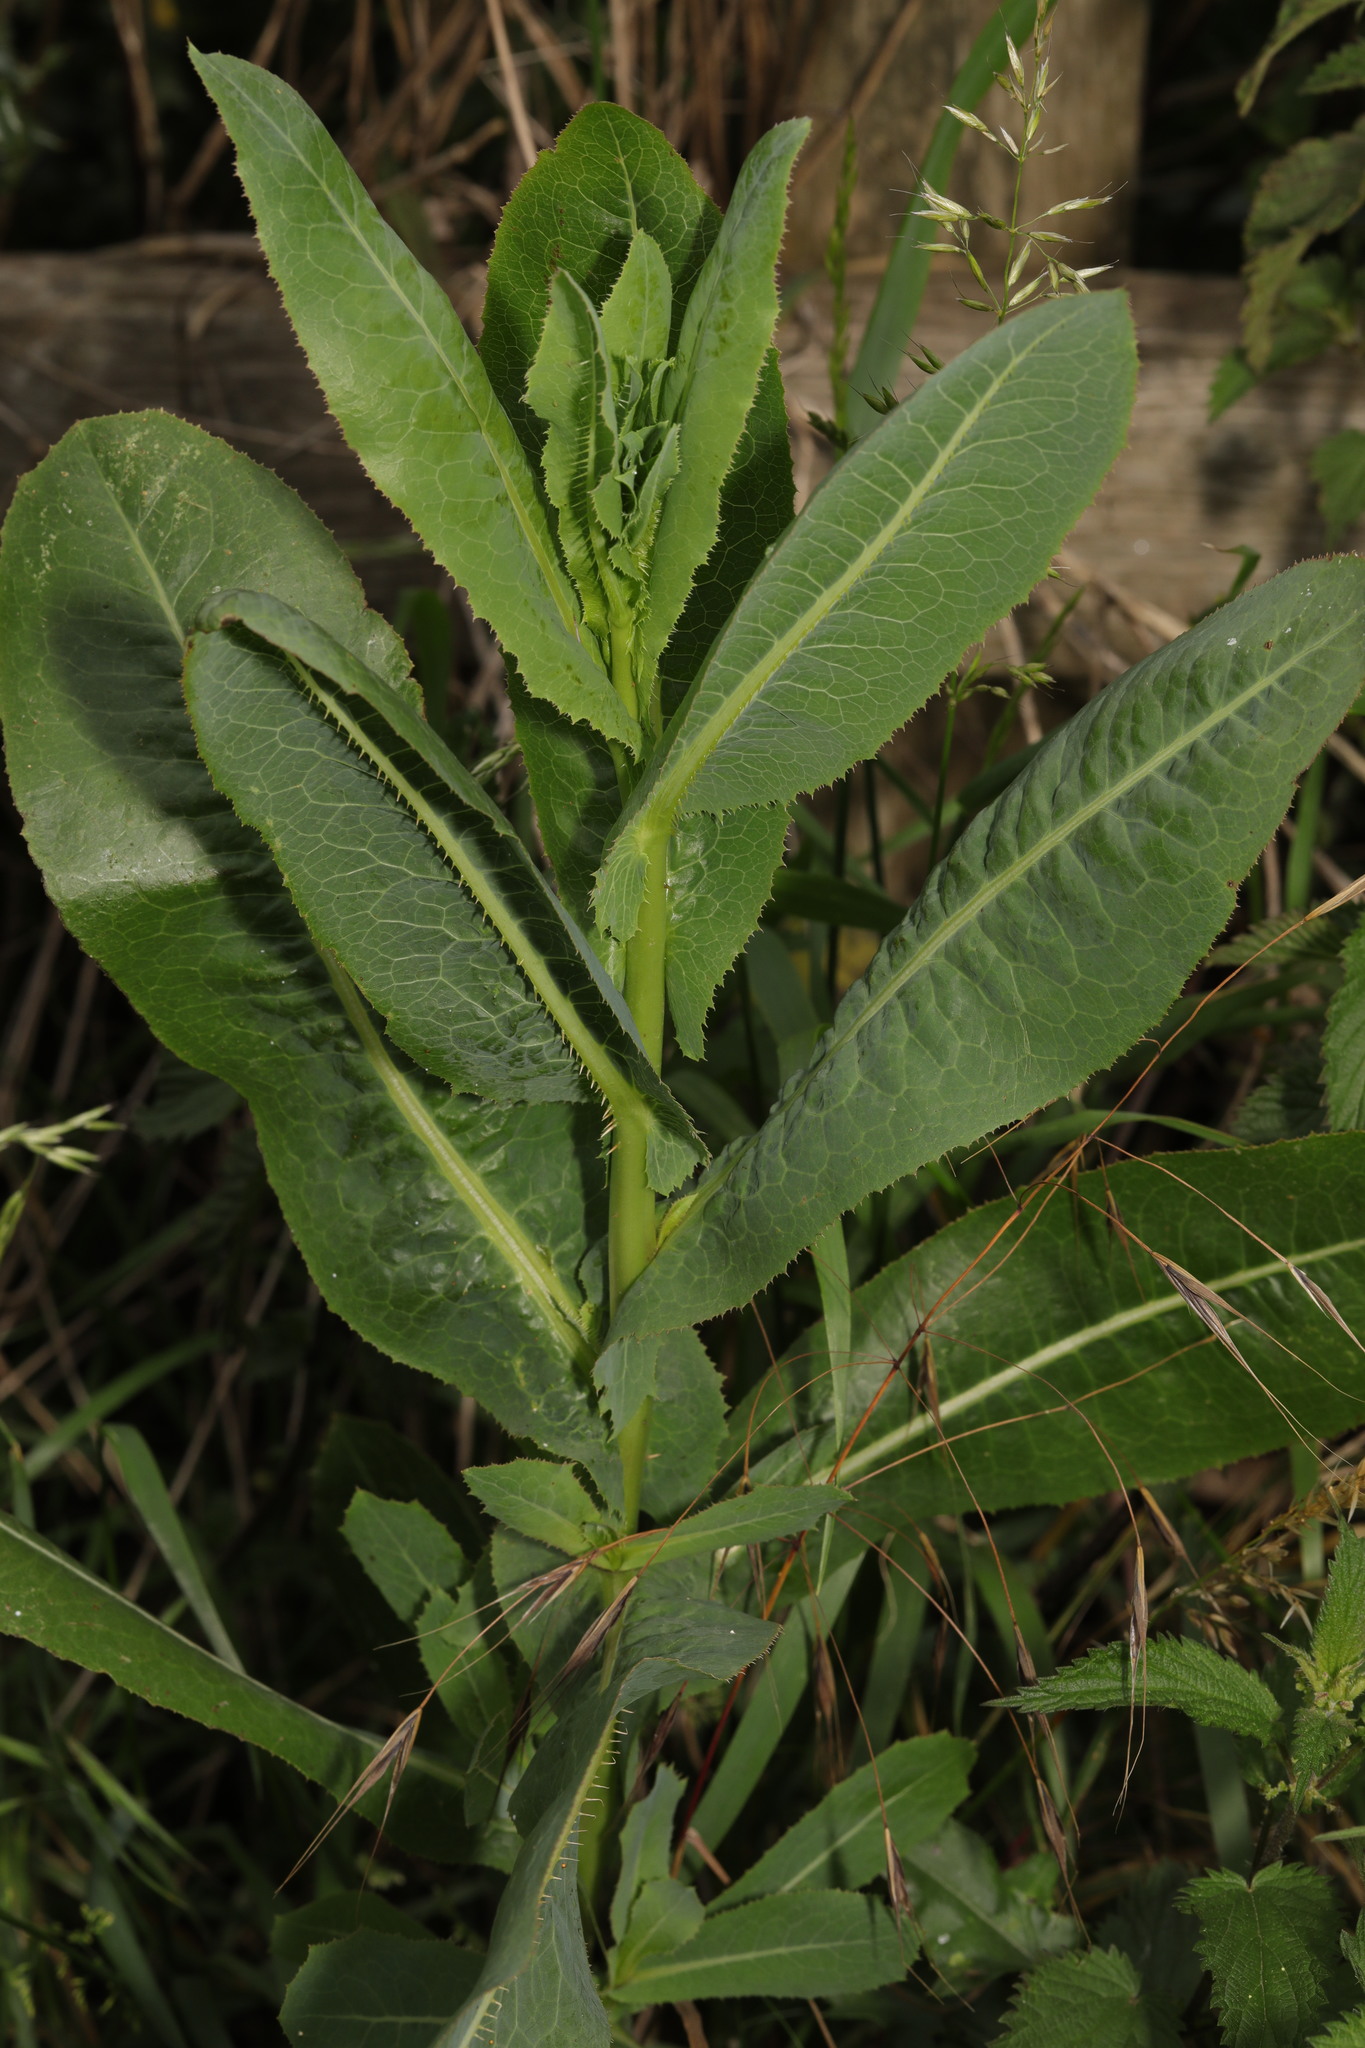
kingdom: Plantae
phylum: Tracheophyta
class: Magnoliopsida
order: Asterales
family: Asteraceae
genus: Lactuca
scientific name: Lactuca serriola
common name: Prickly lettuce
